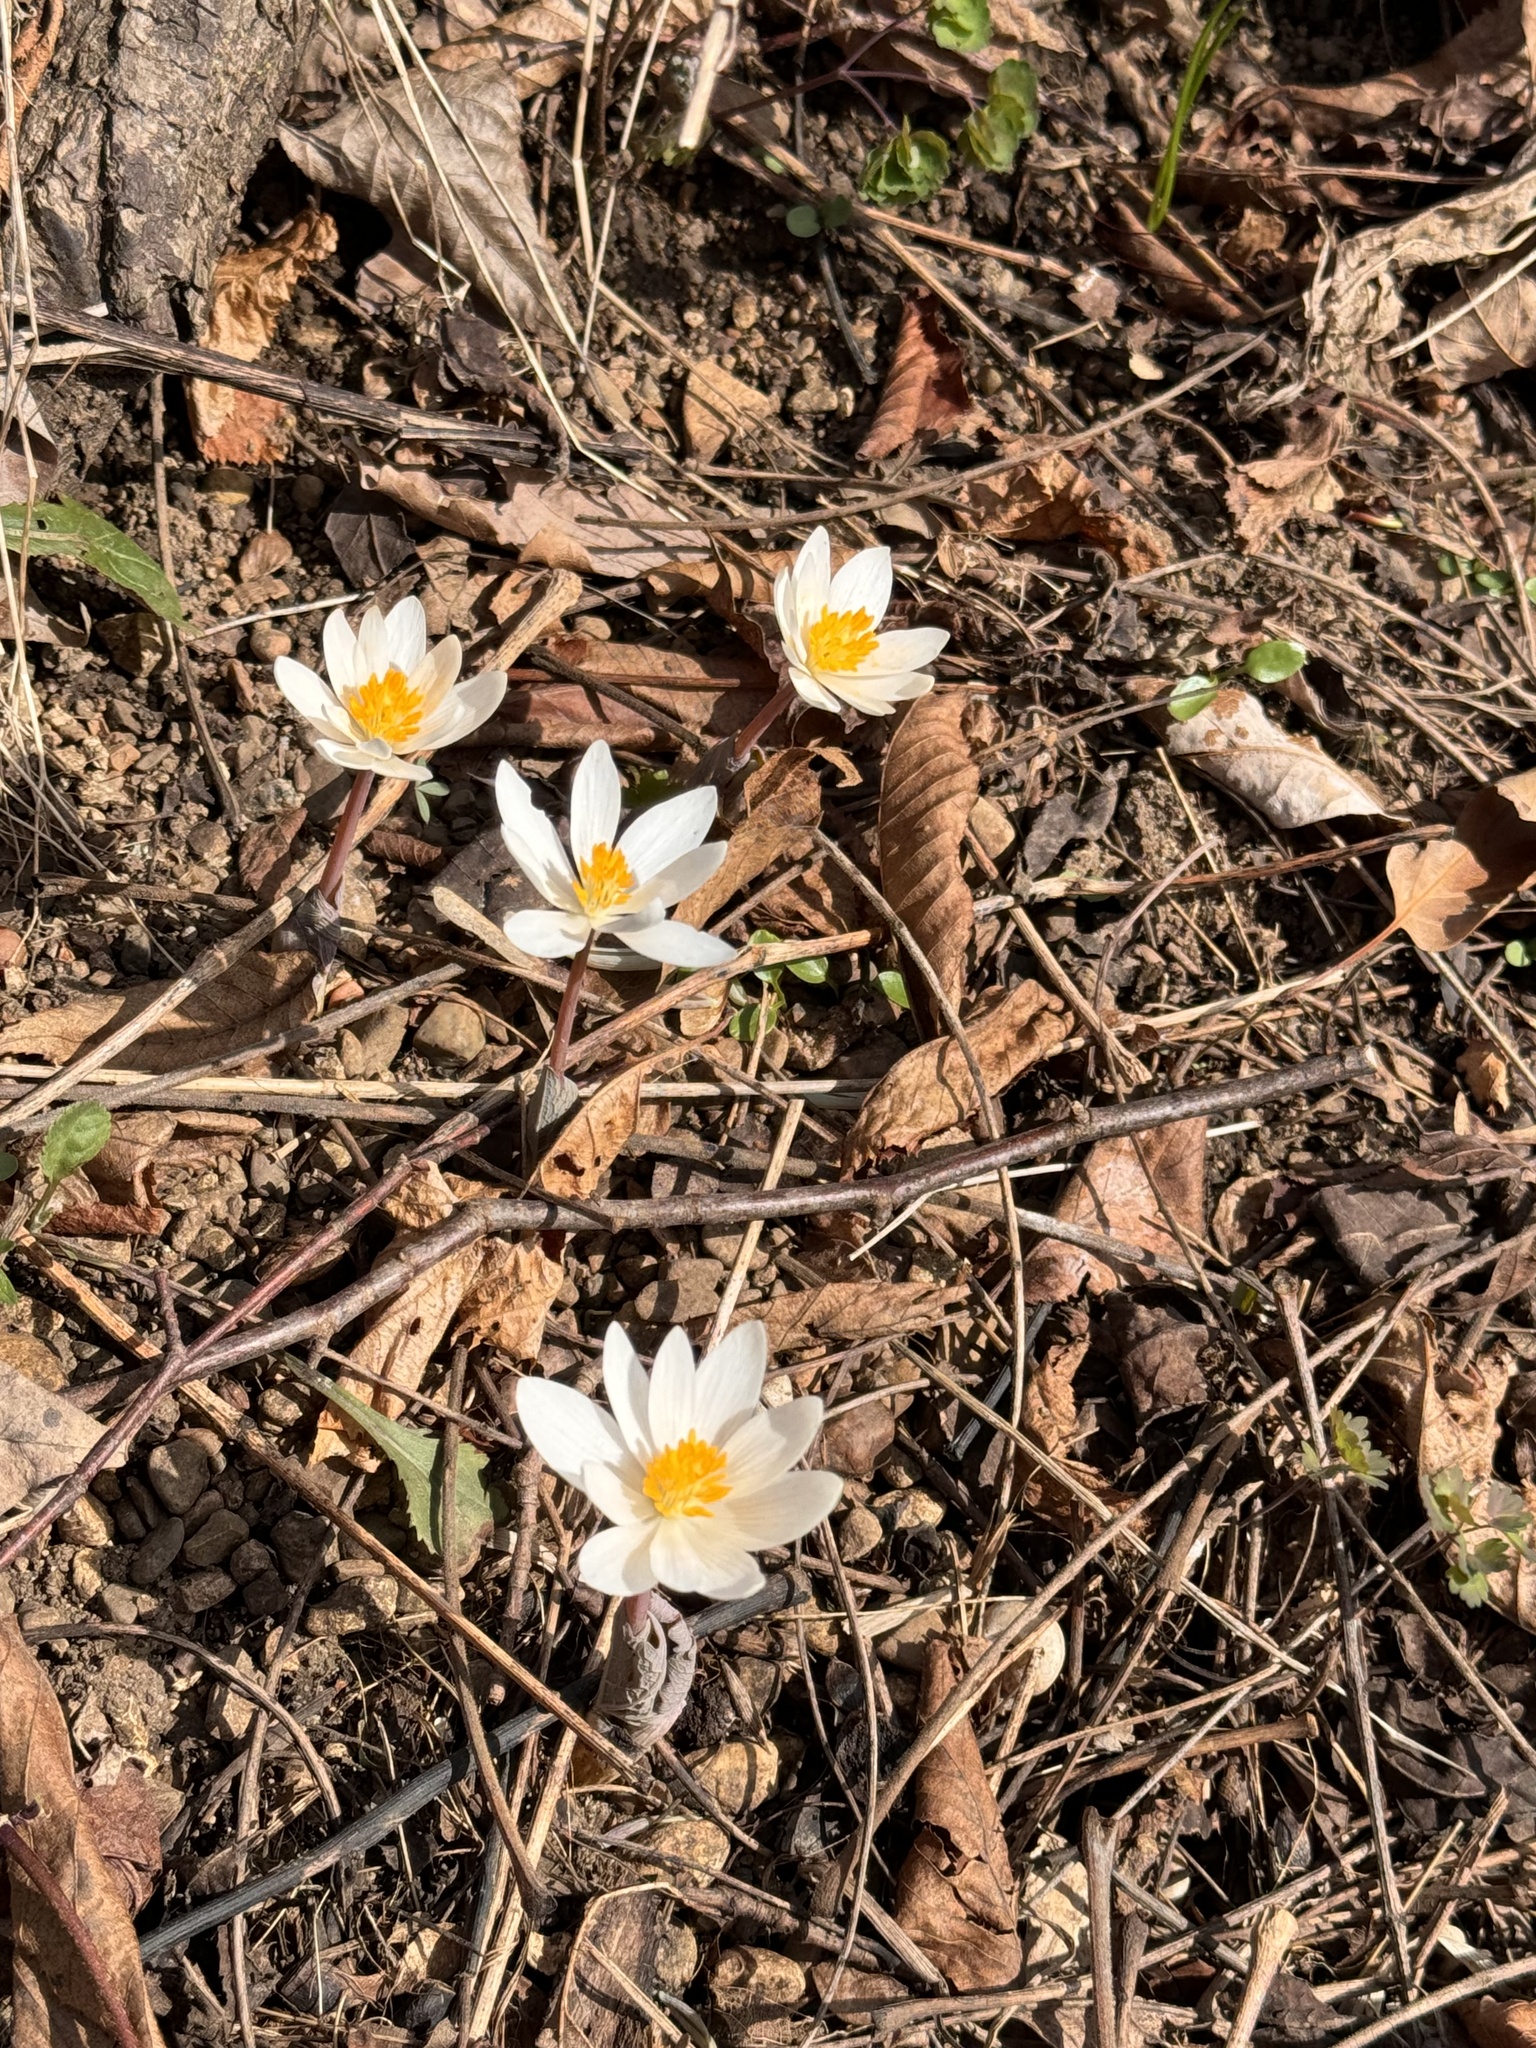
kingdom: Plantae
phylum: Tracheophyta
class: Magnoliopsida
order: Ranunculales
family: Papaveraceae
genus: Sanguinaria
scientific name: Sanguinaria canadensis
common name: Bloodroot
